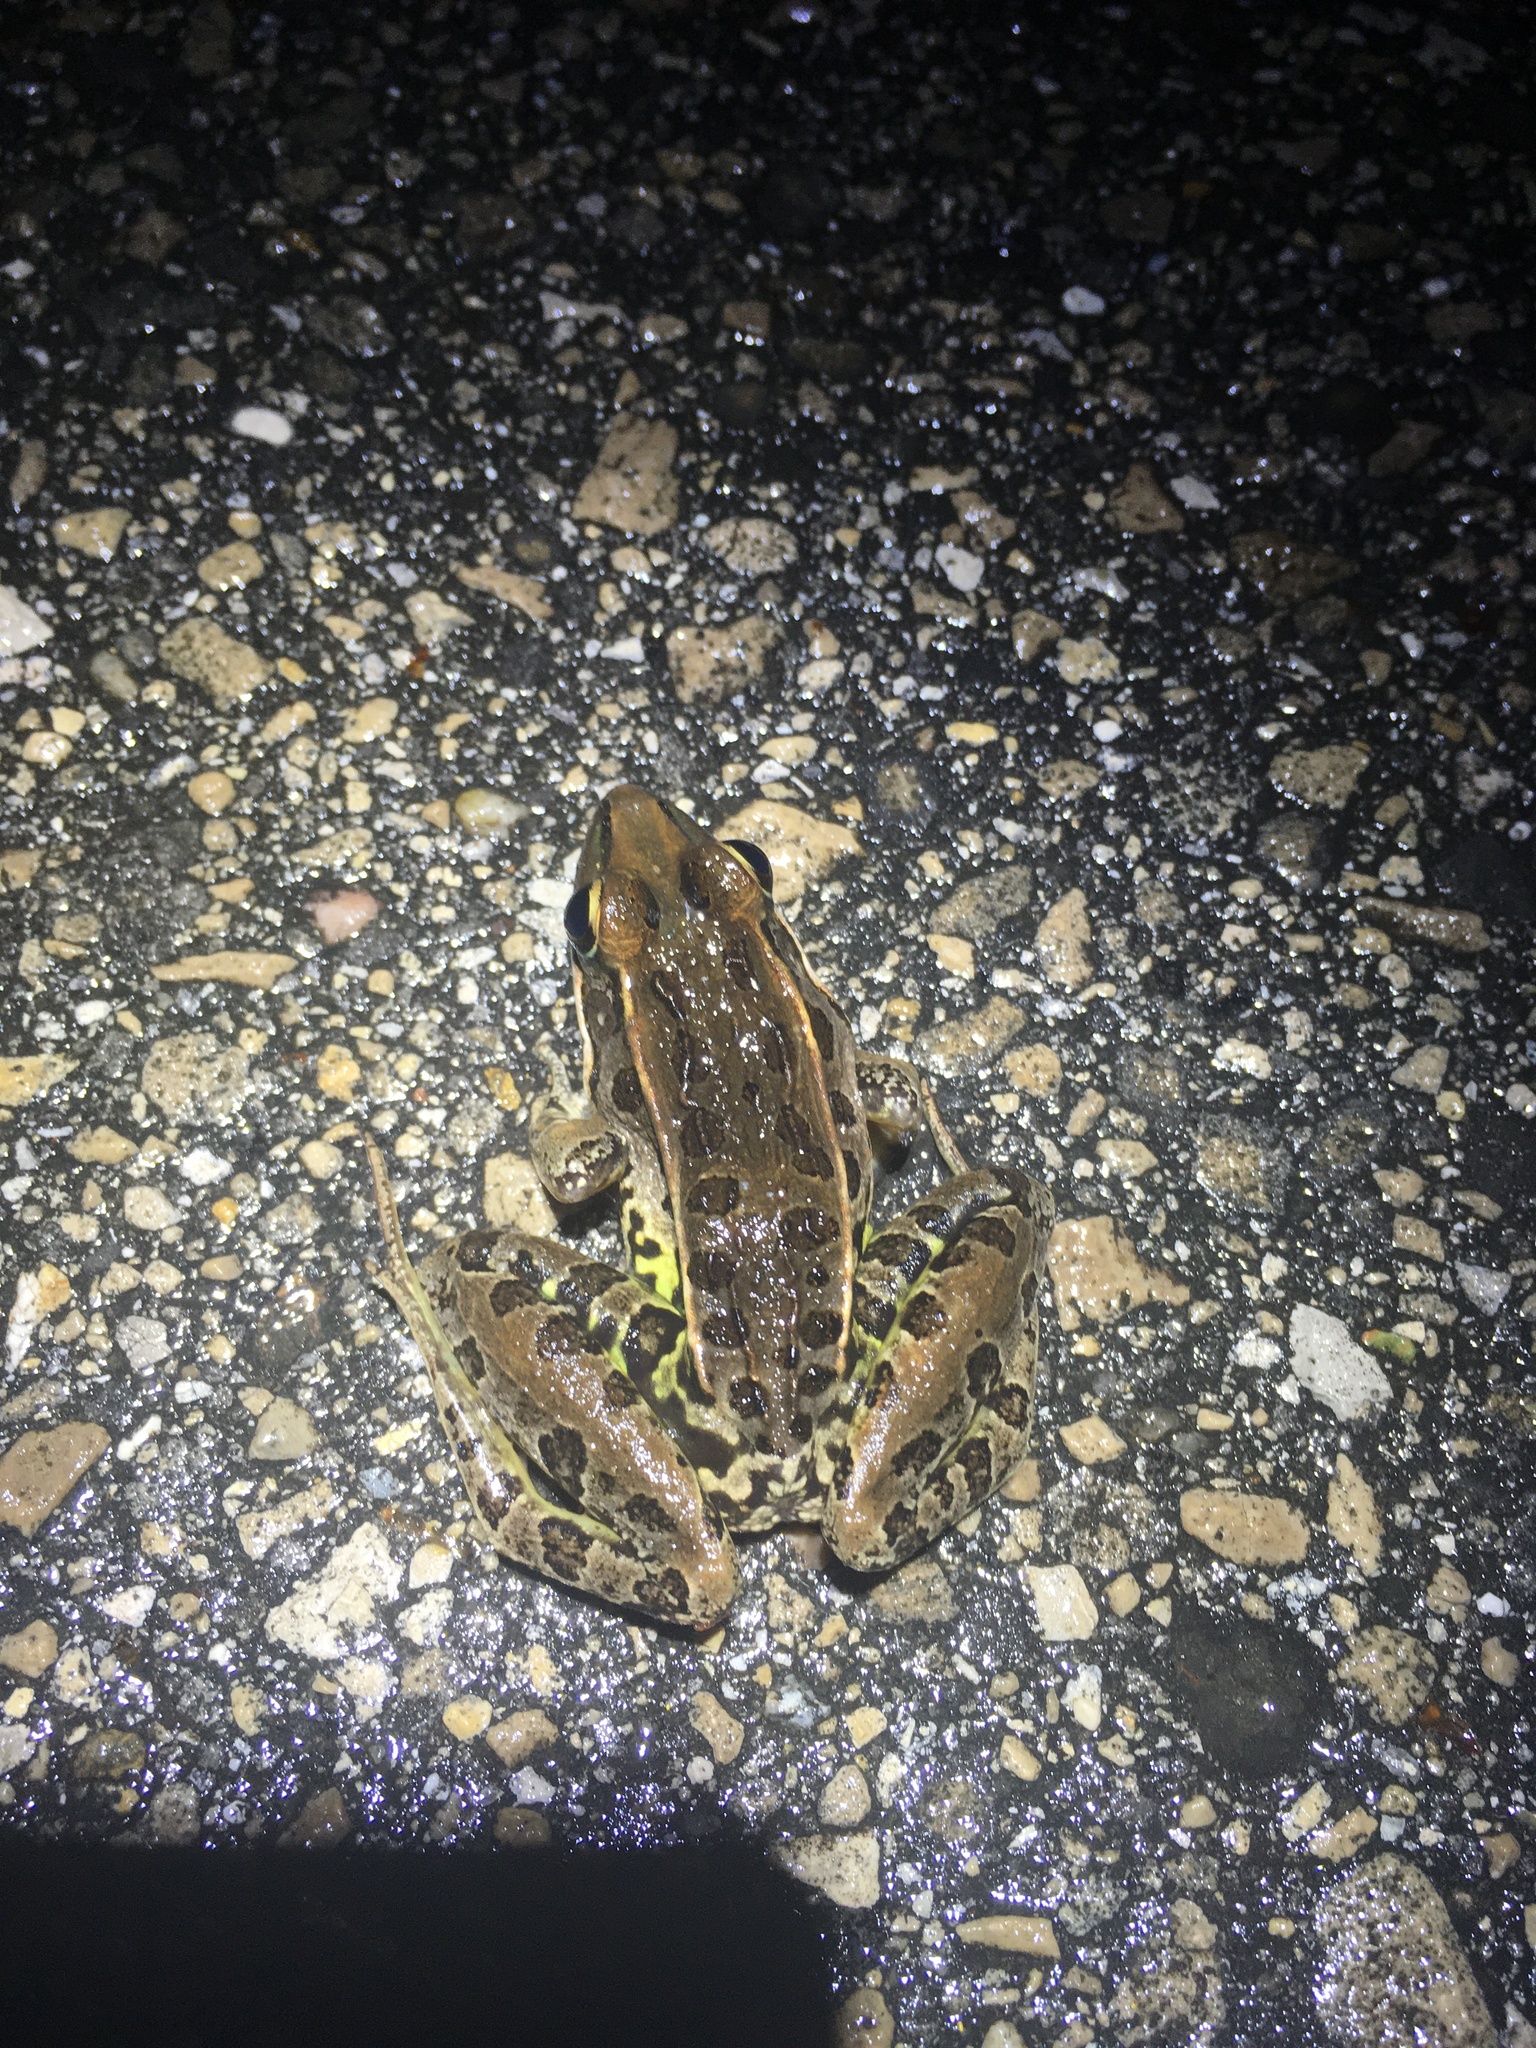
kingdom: Animalia
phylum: Chordata
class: Amphibia
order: Anura
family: Ranidae
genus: Lithobates
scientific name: Lithobates sphenocephalus
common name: Southern leopard frog
